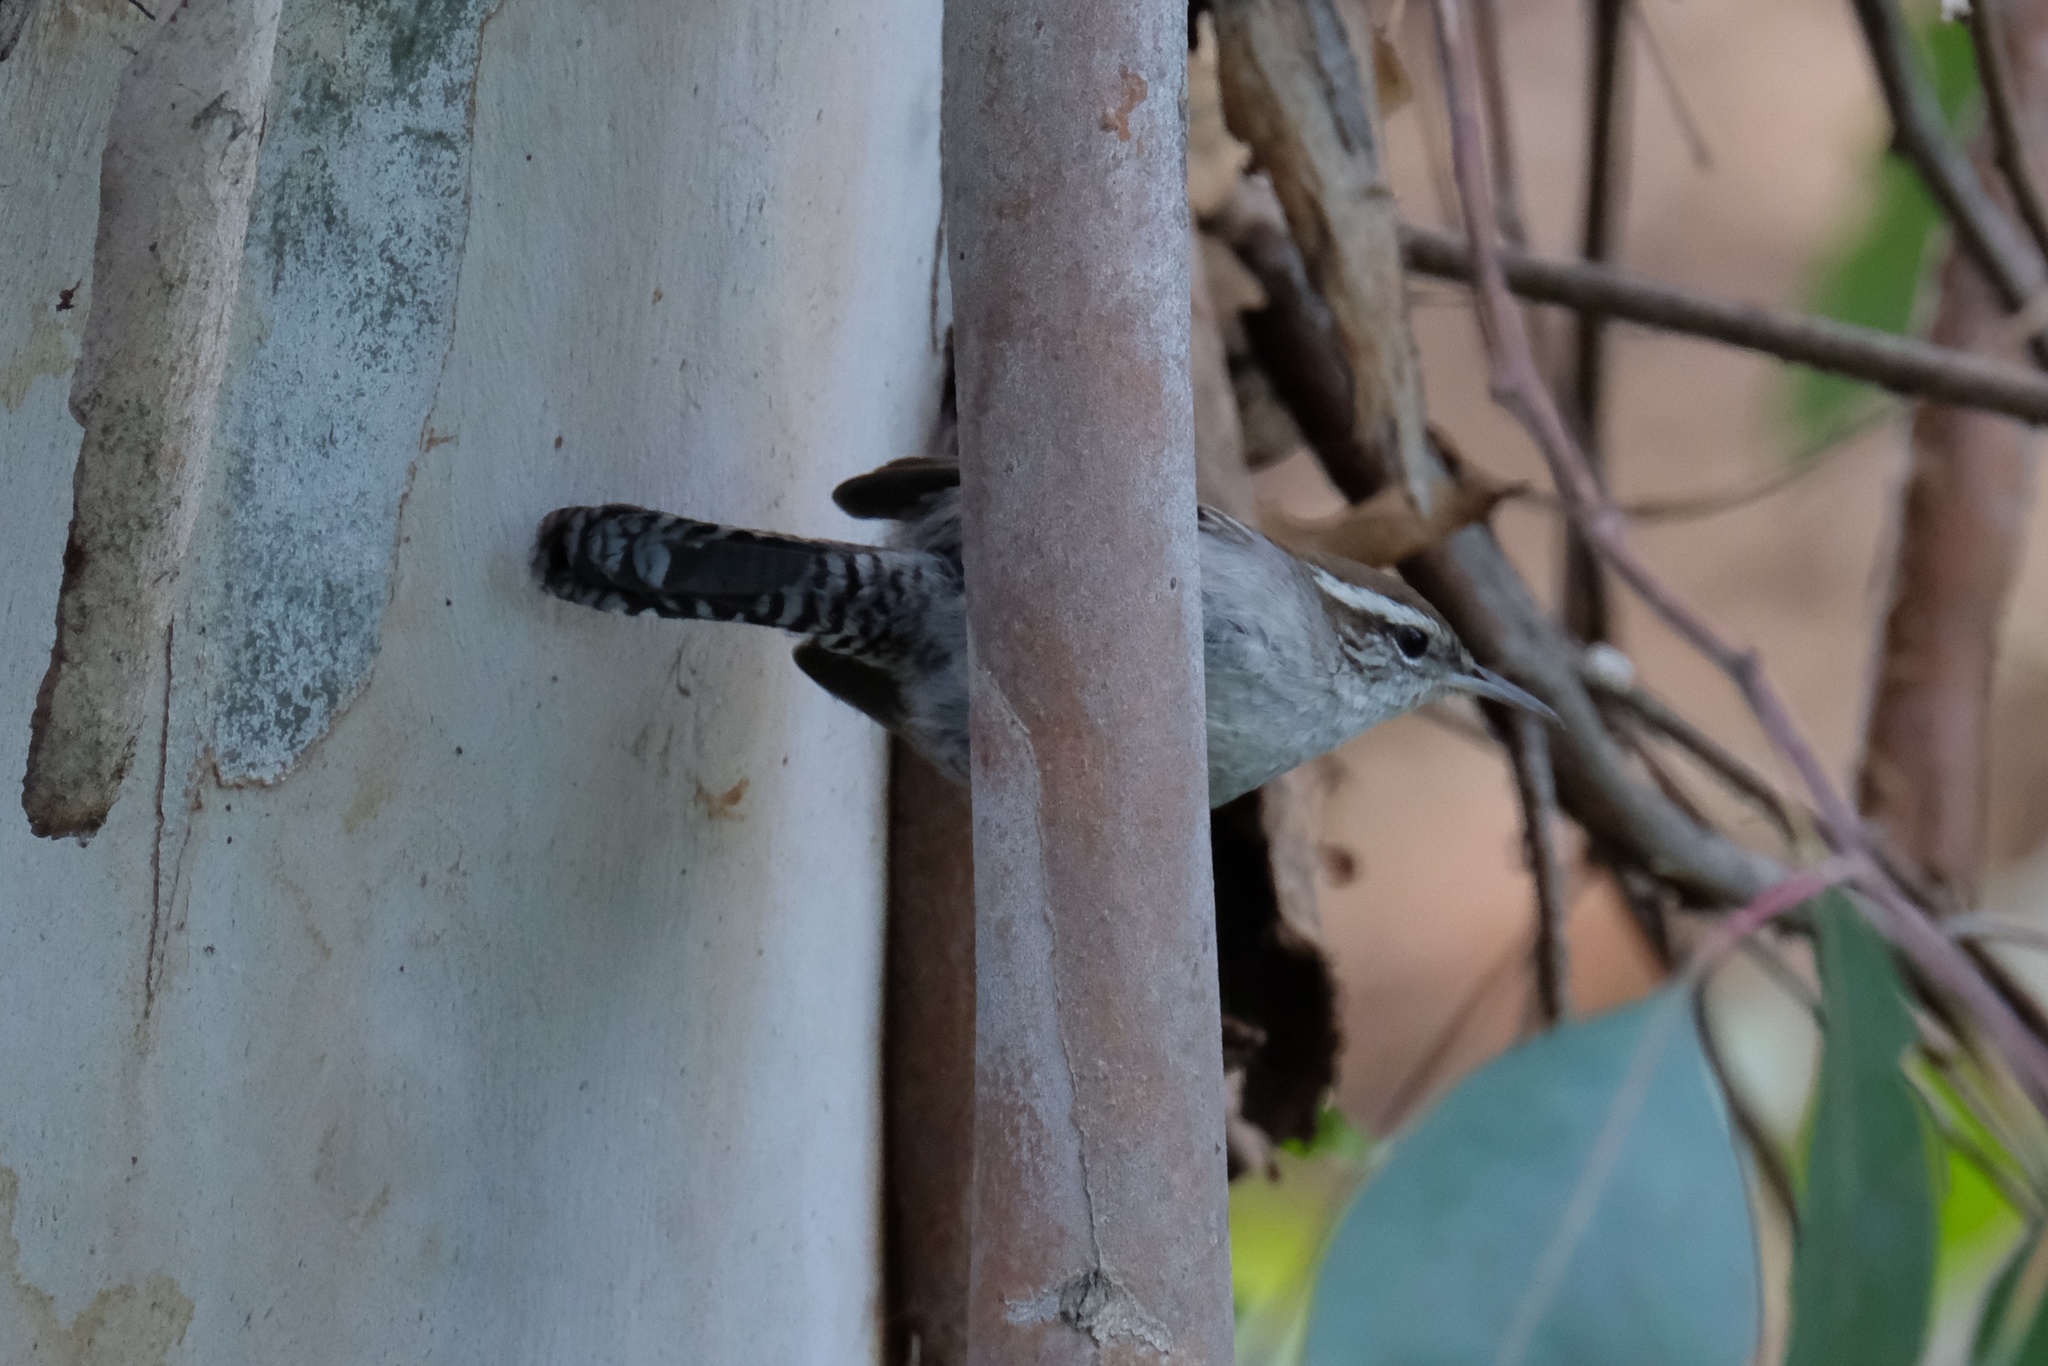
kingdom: Animalia
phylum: Chordata
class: Aves
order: Passeriformes
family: Troglodytidae
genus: Thryomanes
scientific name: Thryomanes bewickii
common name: Bewick's wren
